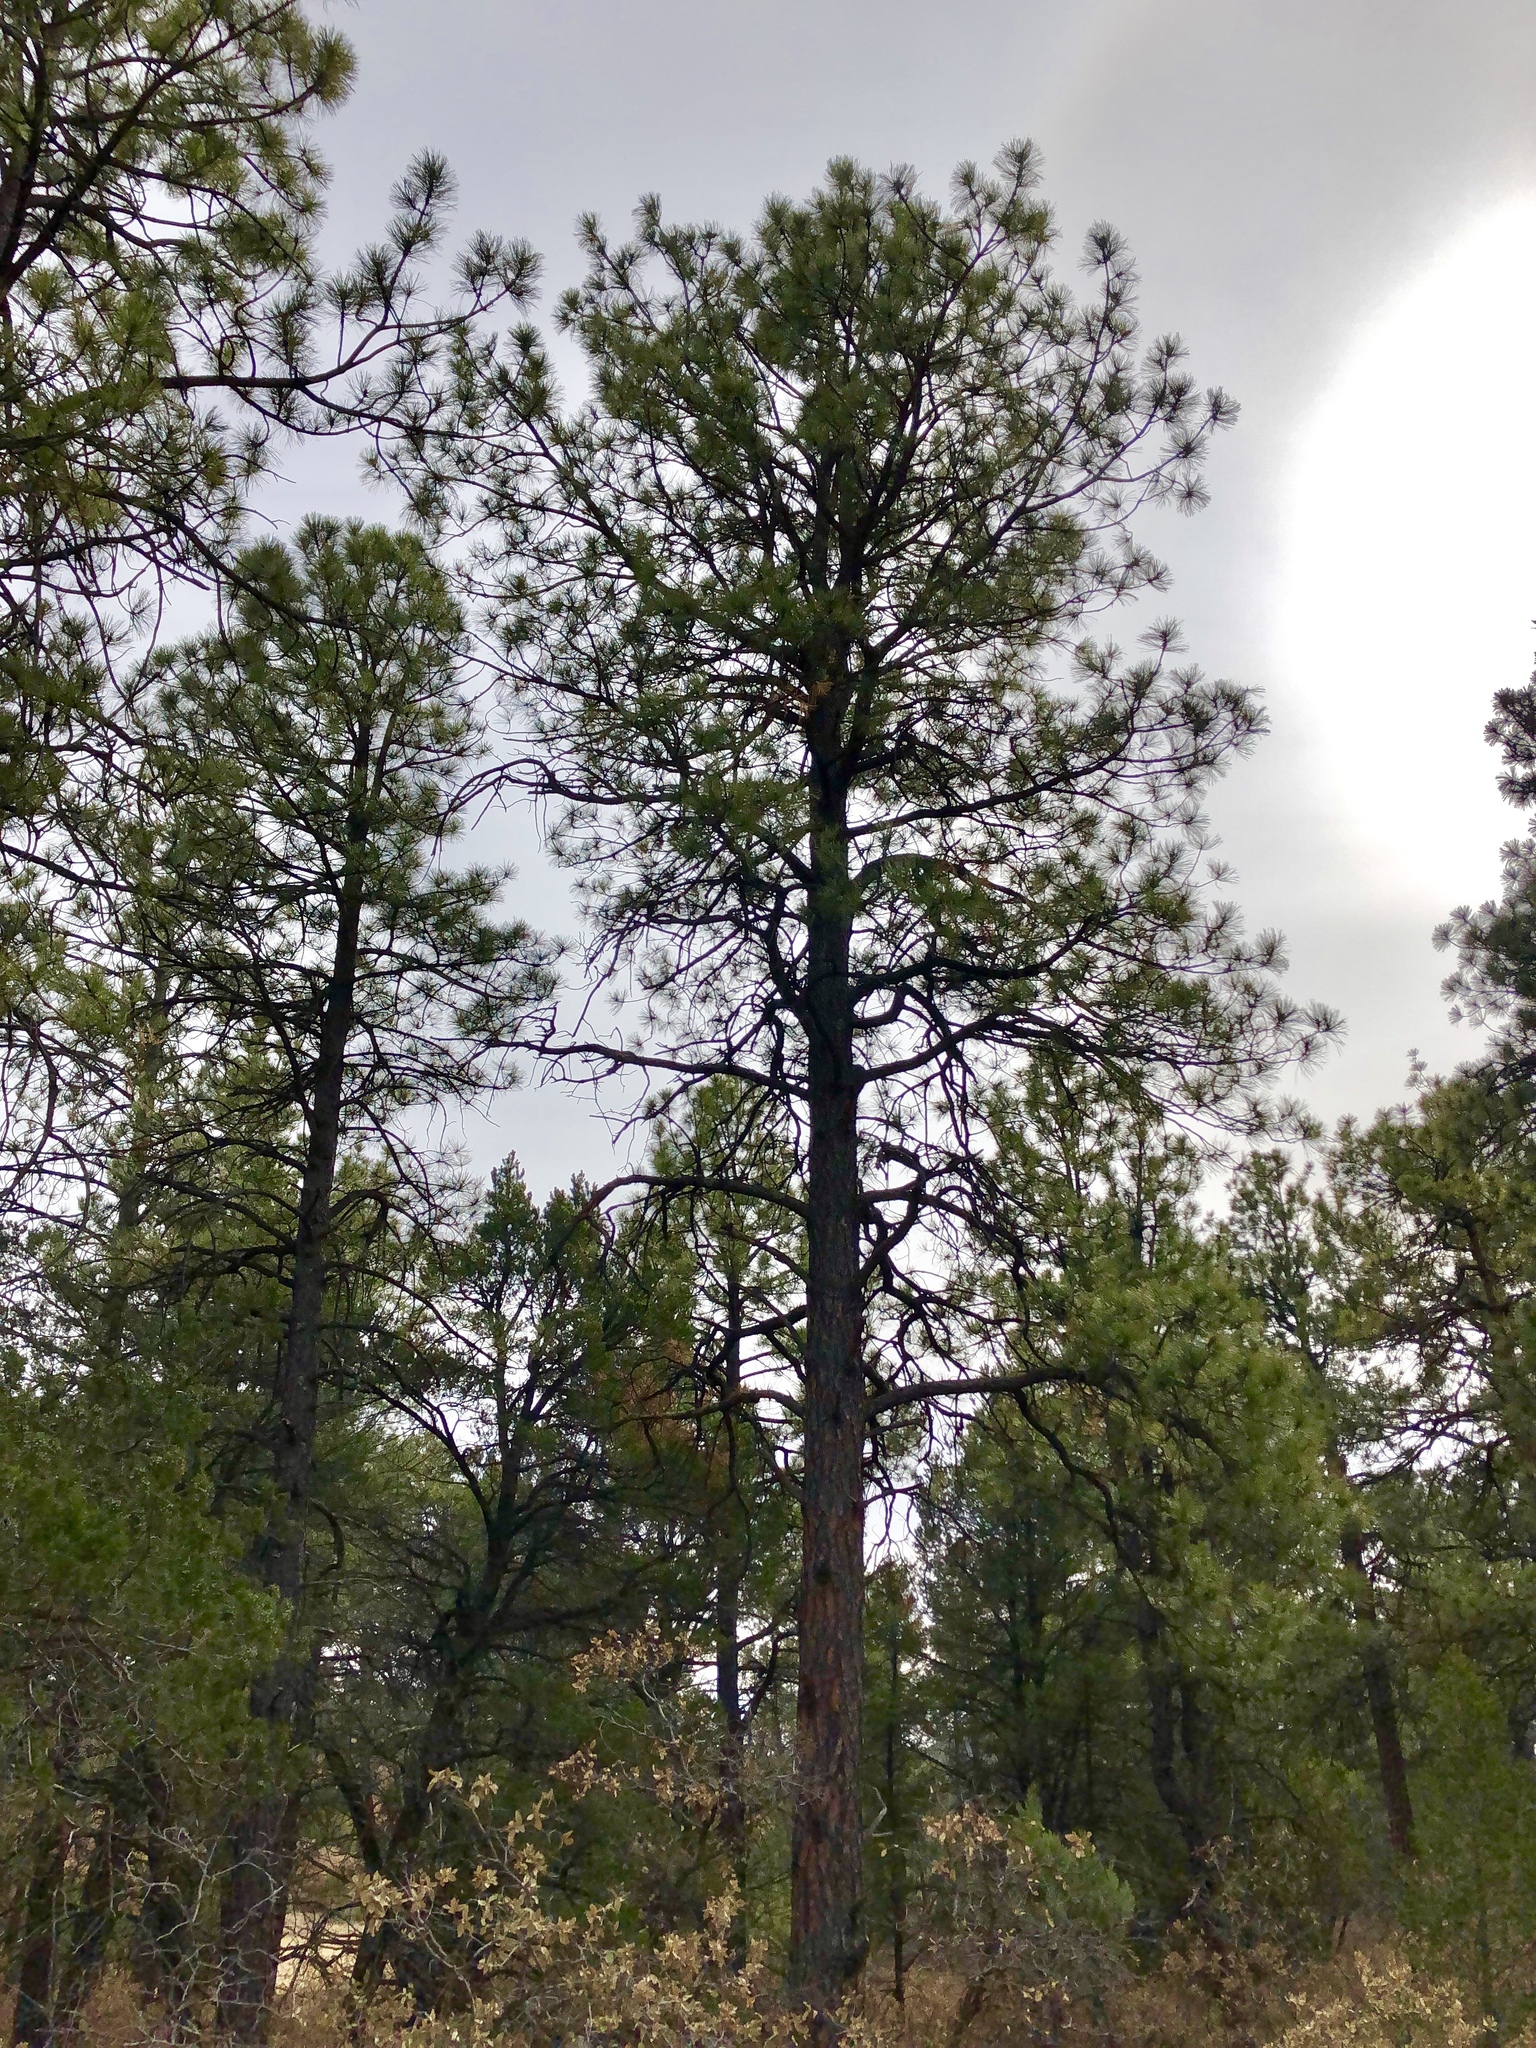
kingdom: Plantae
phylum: Tracheophyta
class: Pinopsida
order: Pinales
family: Pinaceae
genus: Pinus
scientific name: Pinus ponderosa
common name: Western yellow-pine
